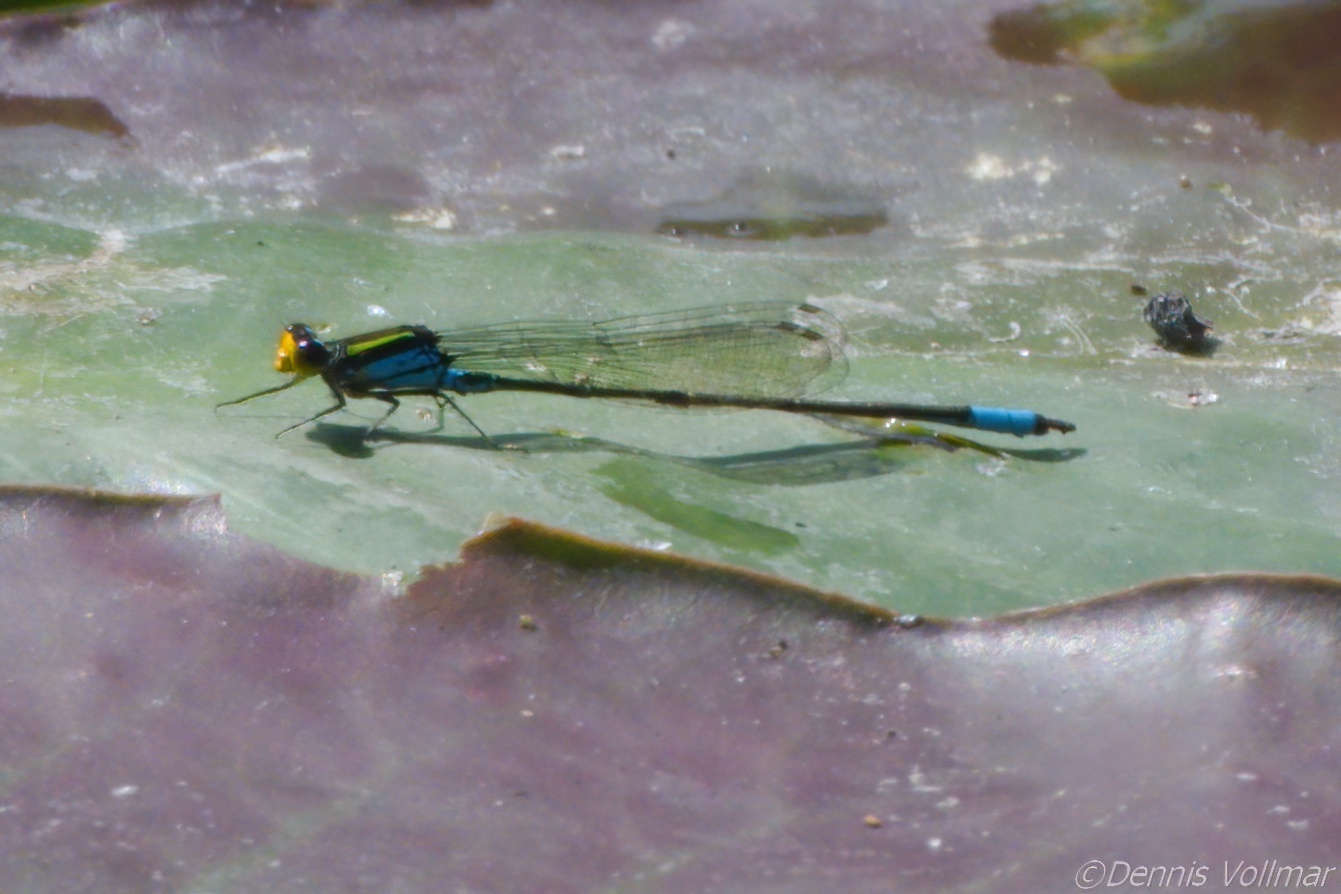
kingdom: Animalia
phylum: Arthropoda
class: Insecta
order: Odonata
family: Coenagrionidae
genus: Neoerythromma
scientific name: Neoerythromma cultellatum
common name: Caribbean yellowface
